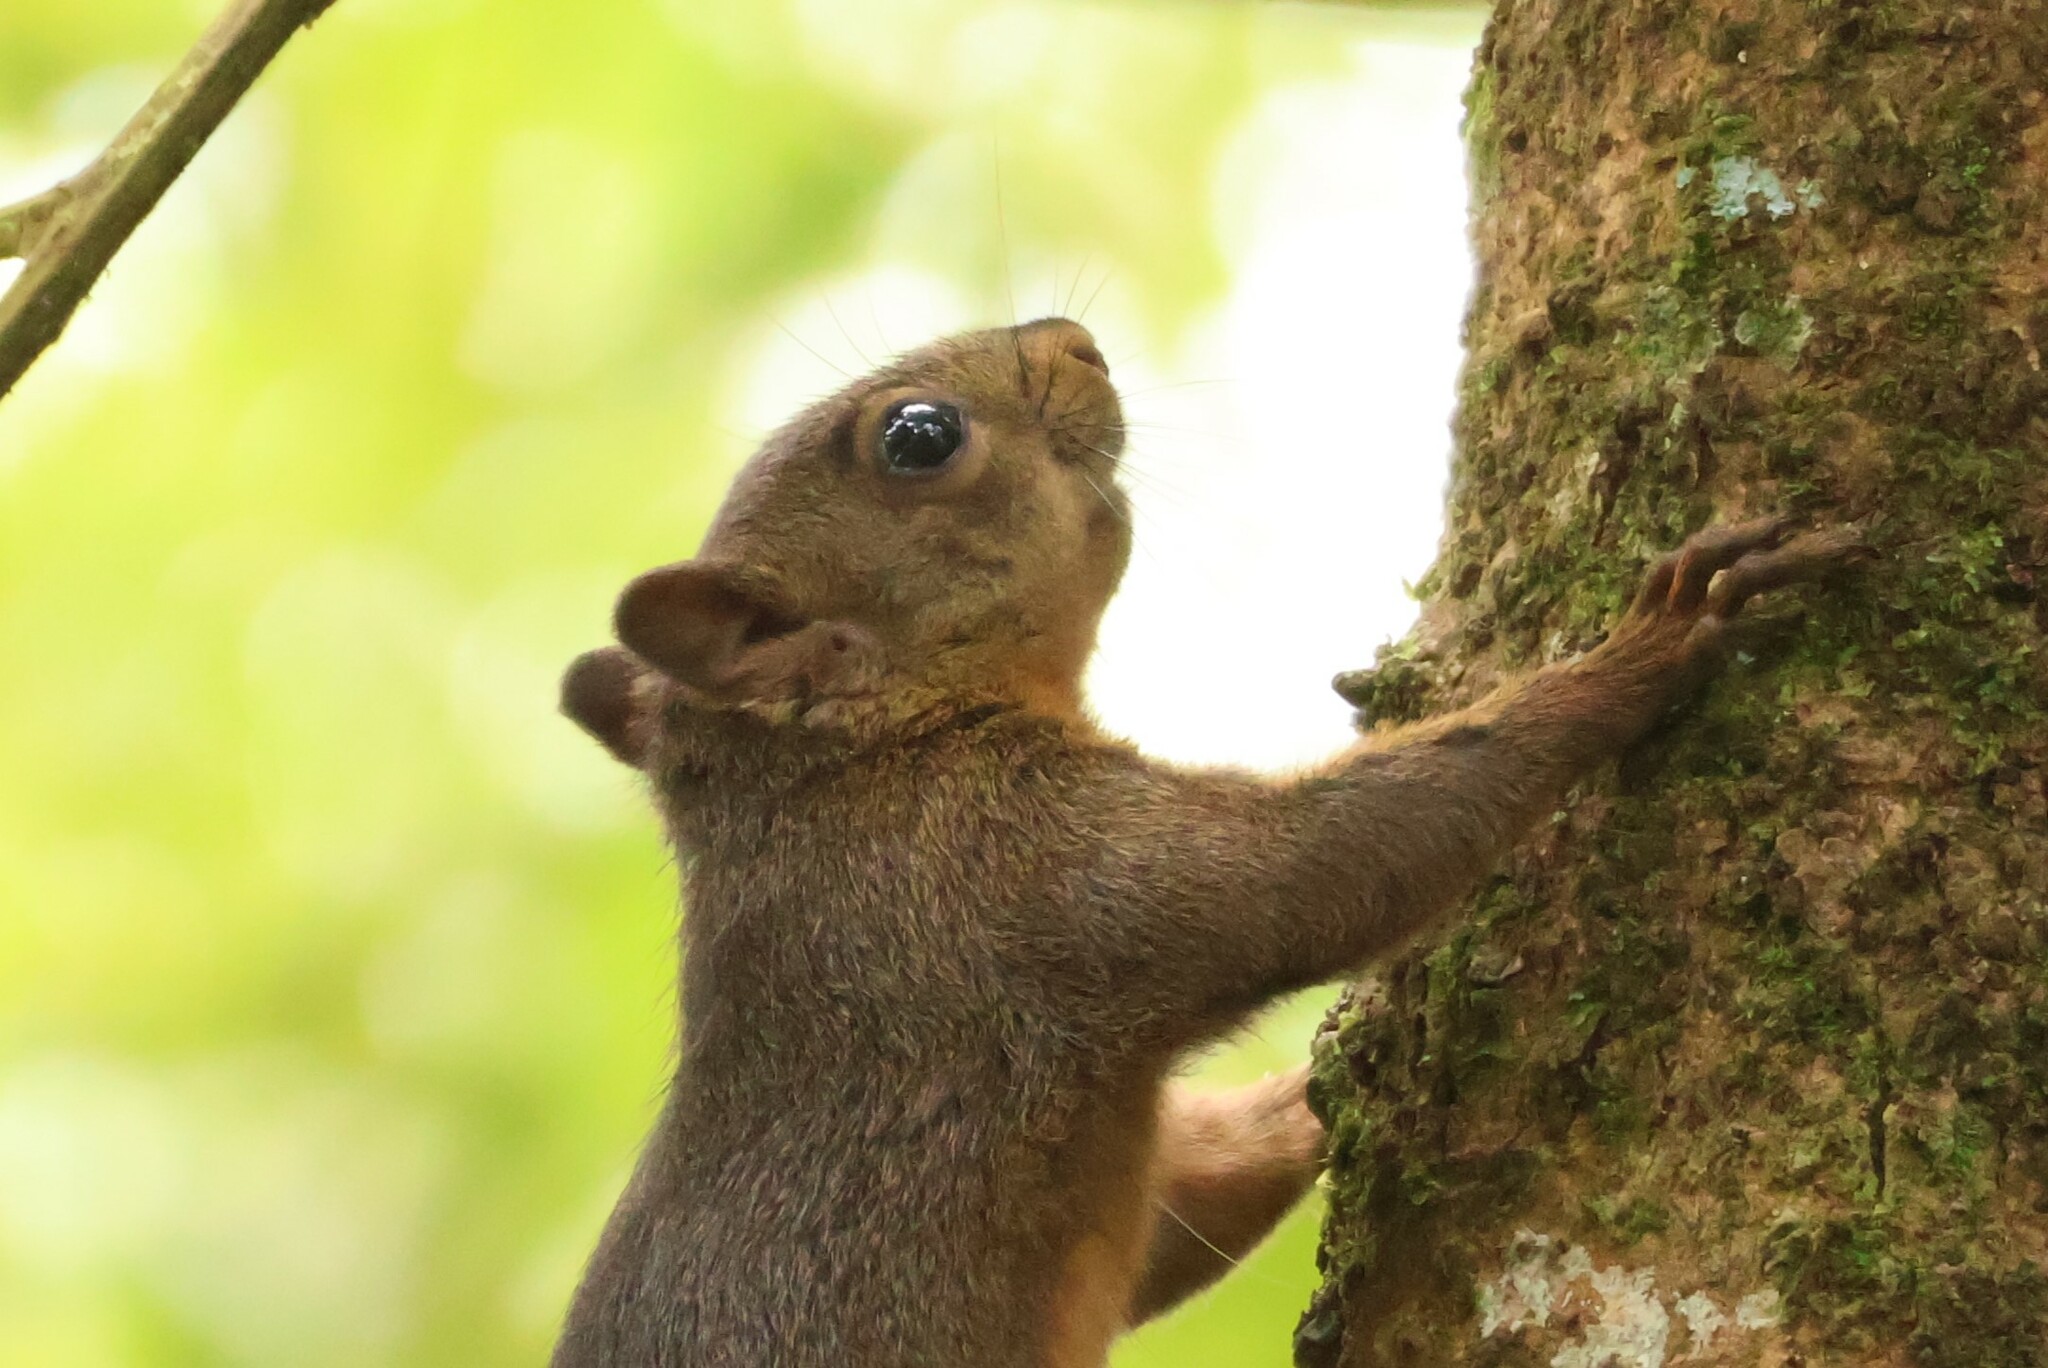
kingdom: Animalia
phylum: Chordata
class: Mammalia
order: Rodentia
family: Sciuridae
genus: Sciurus
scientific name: Sciurus granatensis
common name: Red-tailed squirrel
